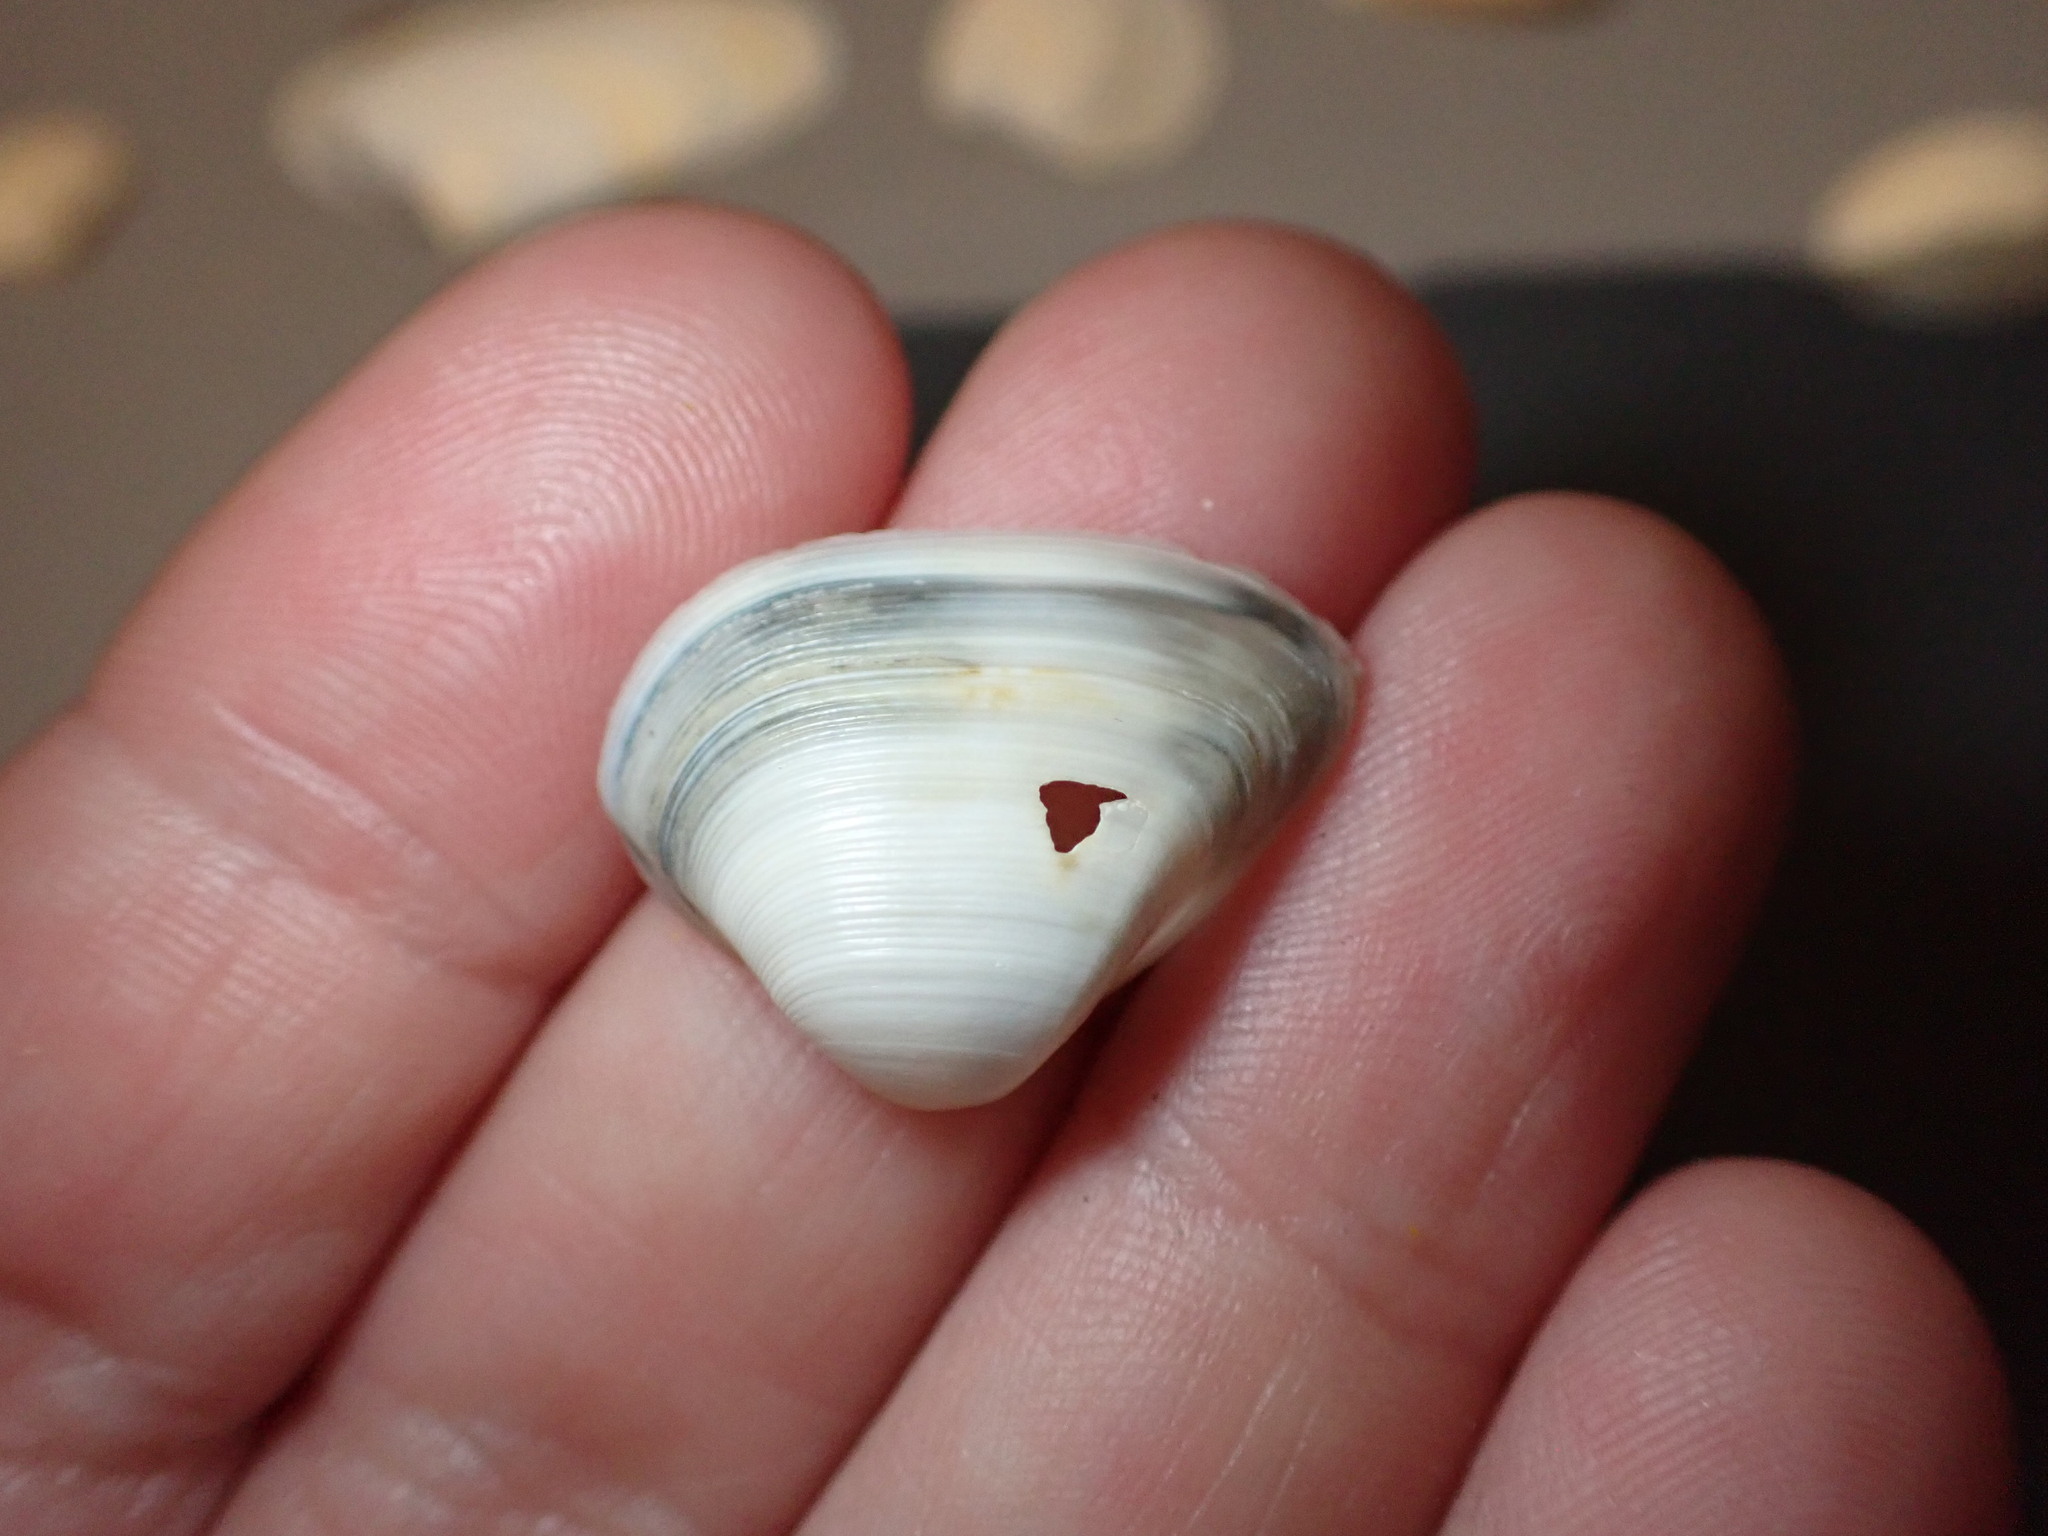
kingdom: Animalia
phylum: Mollusca
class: Bivalvia
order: Venerida
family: Mactridae
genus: Spisula
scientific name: Spisula subtruncata
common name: Cut trough shell
